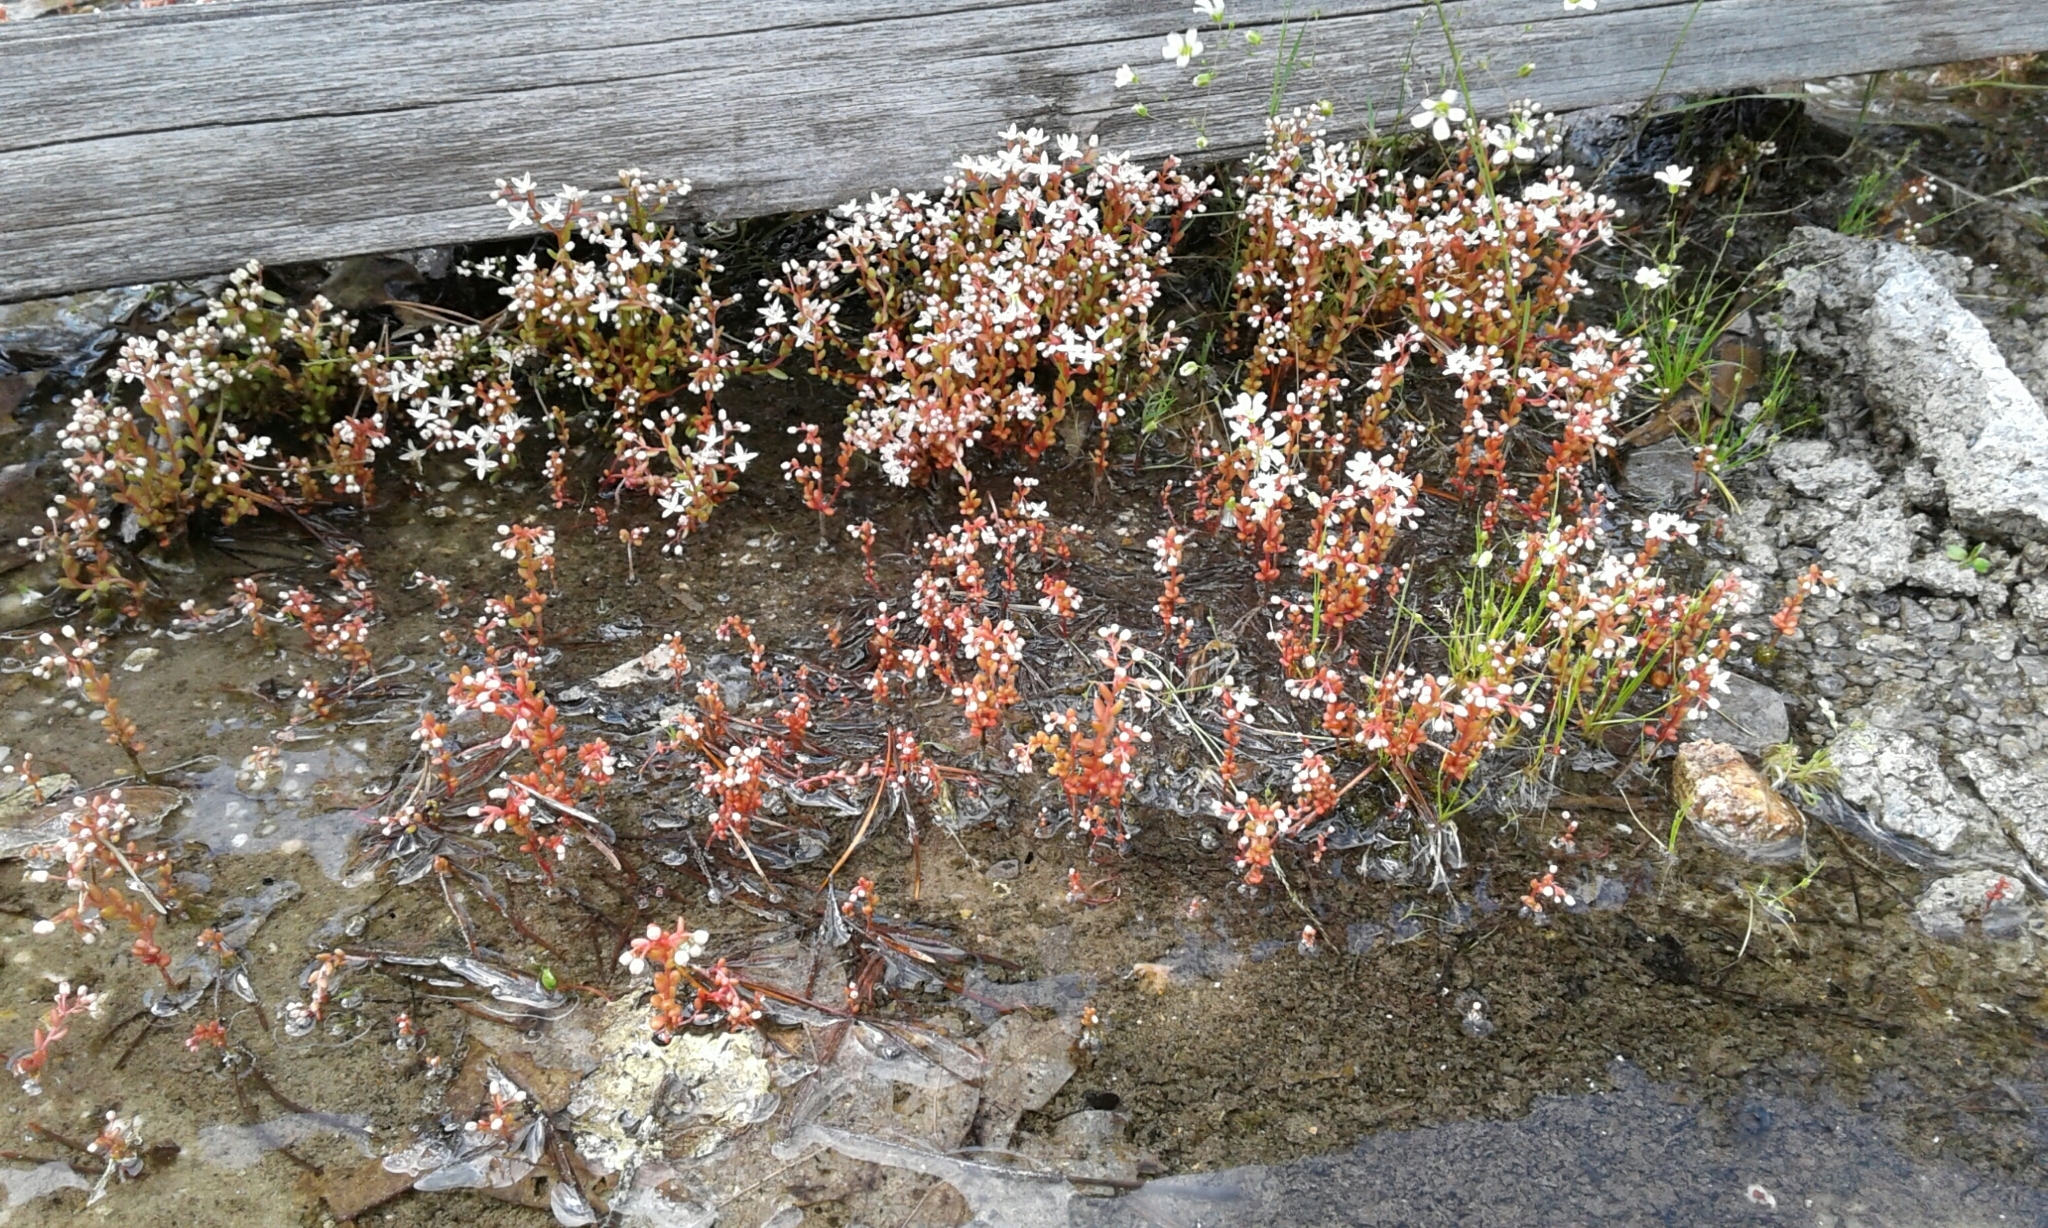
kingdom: Plantae
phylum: Tracheophyta
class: Magnoliopsida
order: Saxifragales
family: Crassulaceae
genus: Sedum
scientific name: Sedum smallii
